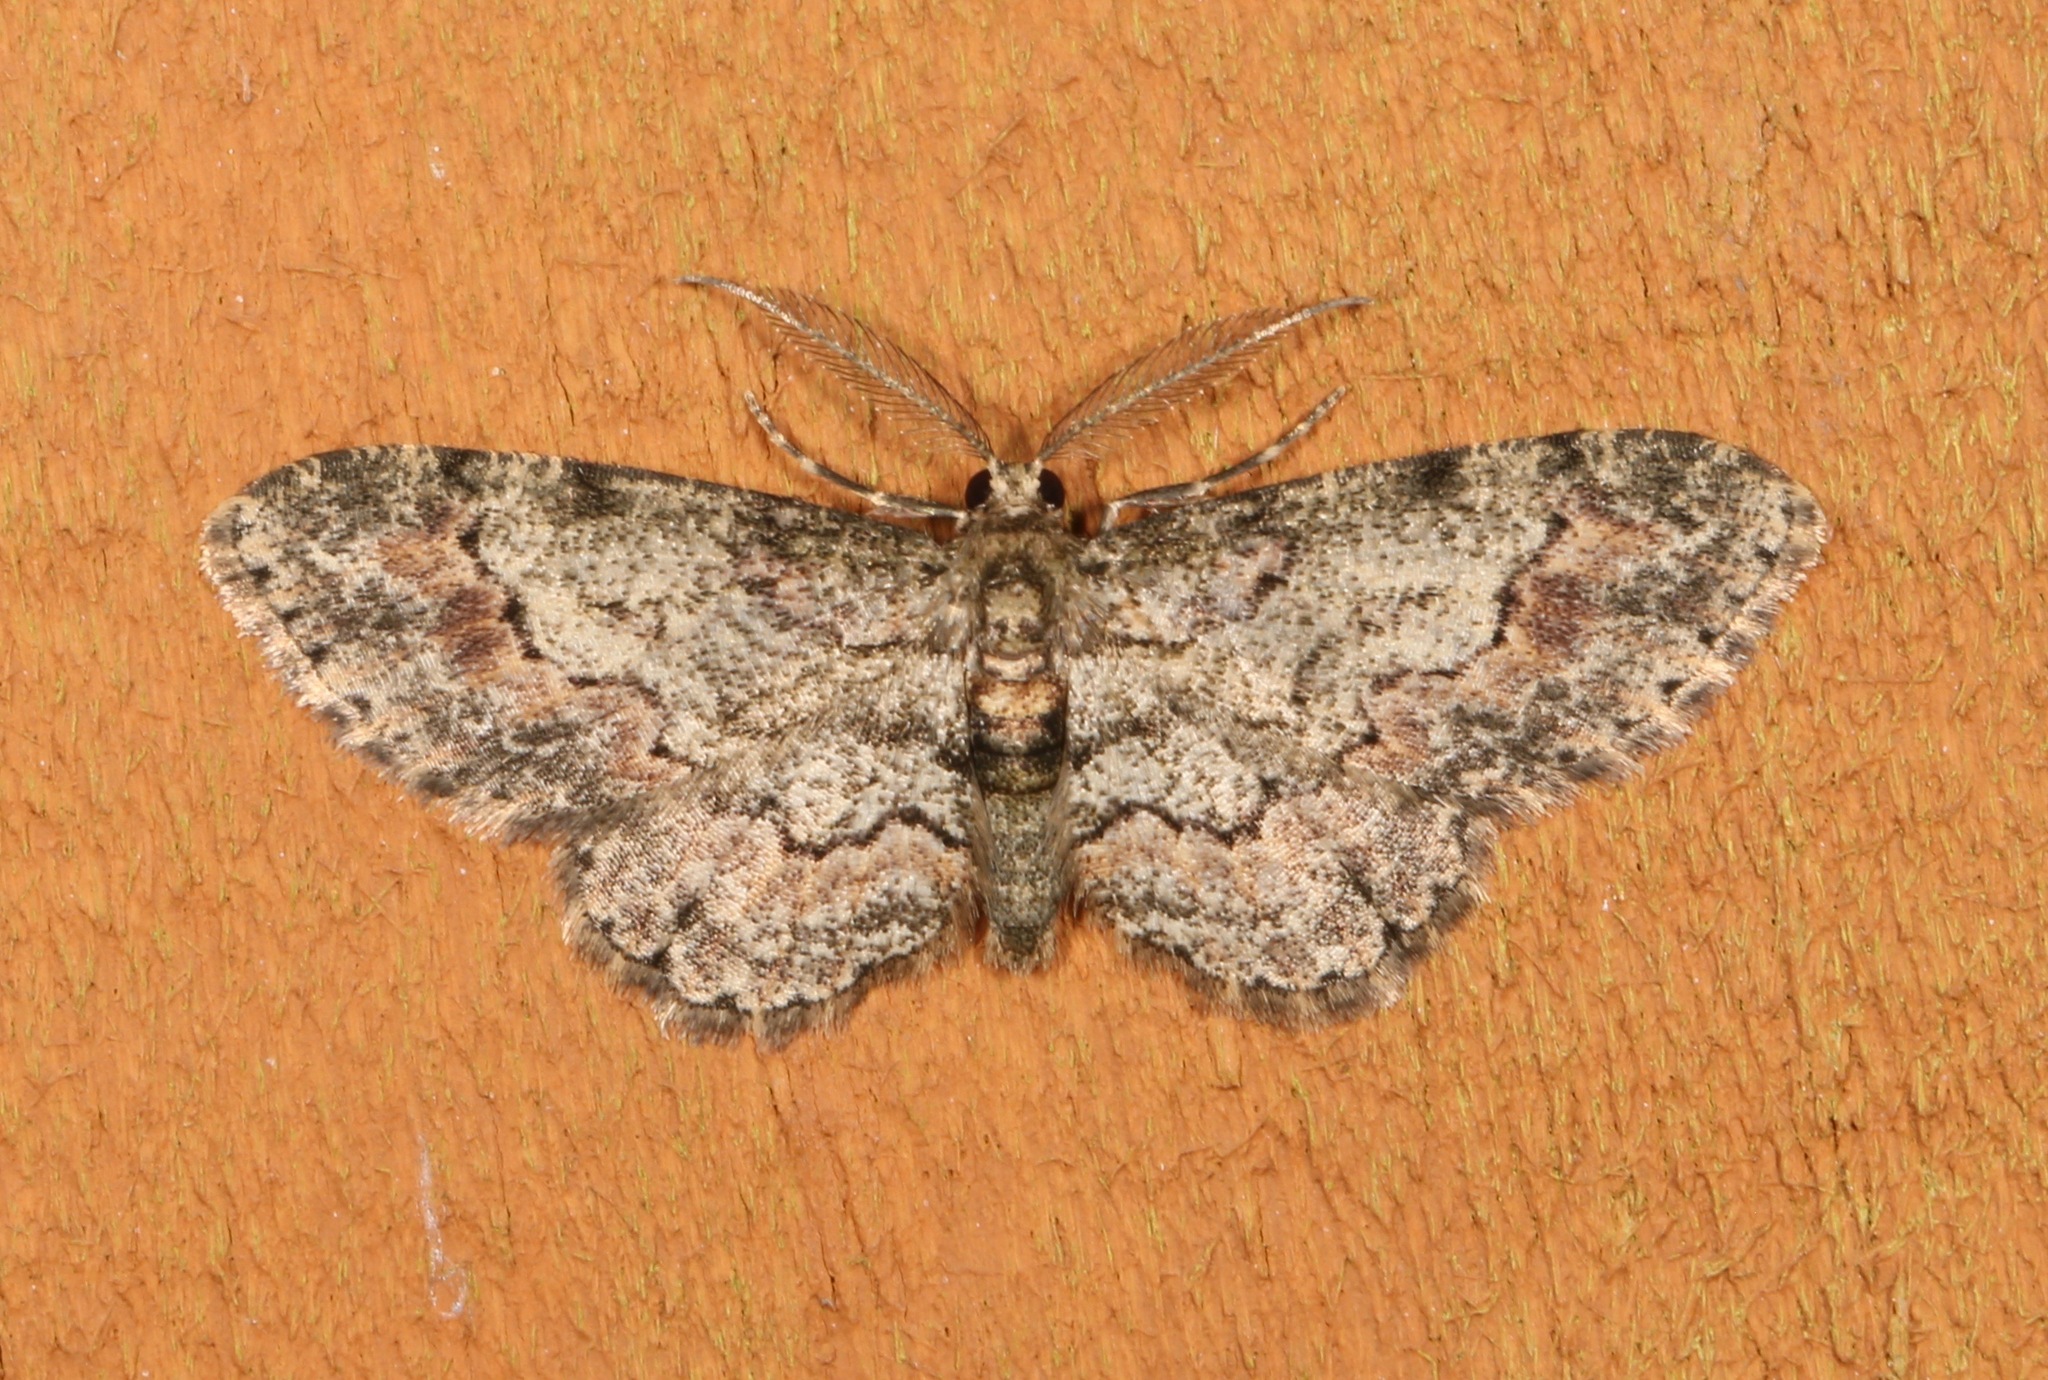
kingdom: Animalia
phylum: Arthropoda
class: Insecta
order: Lepidoptera
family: Geometridae
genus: Glenoides
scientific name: Glenoides texanaria
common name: Texas gray
